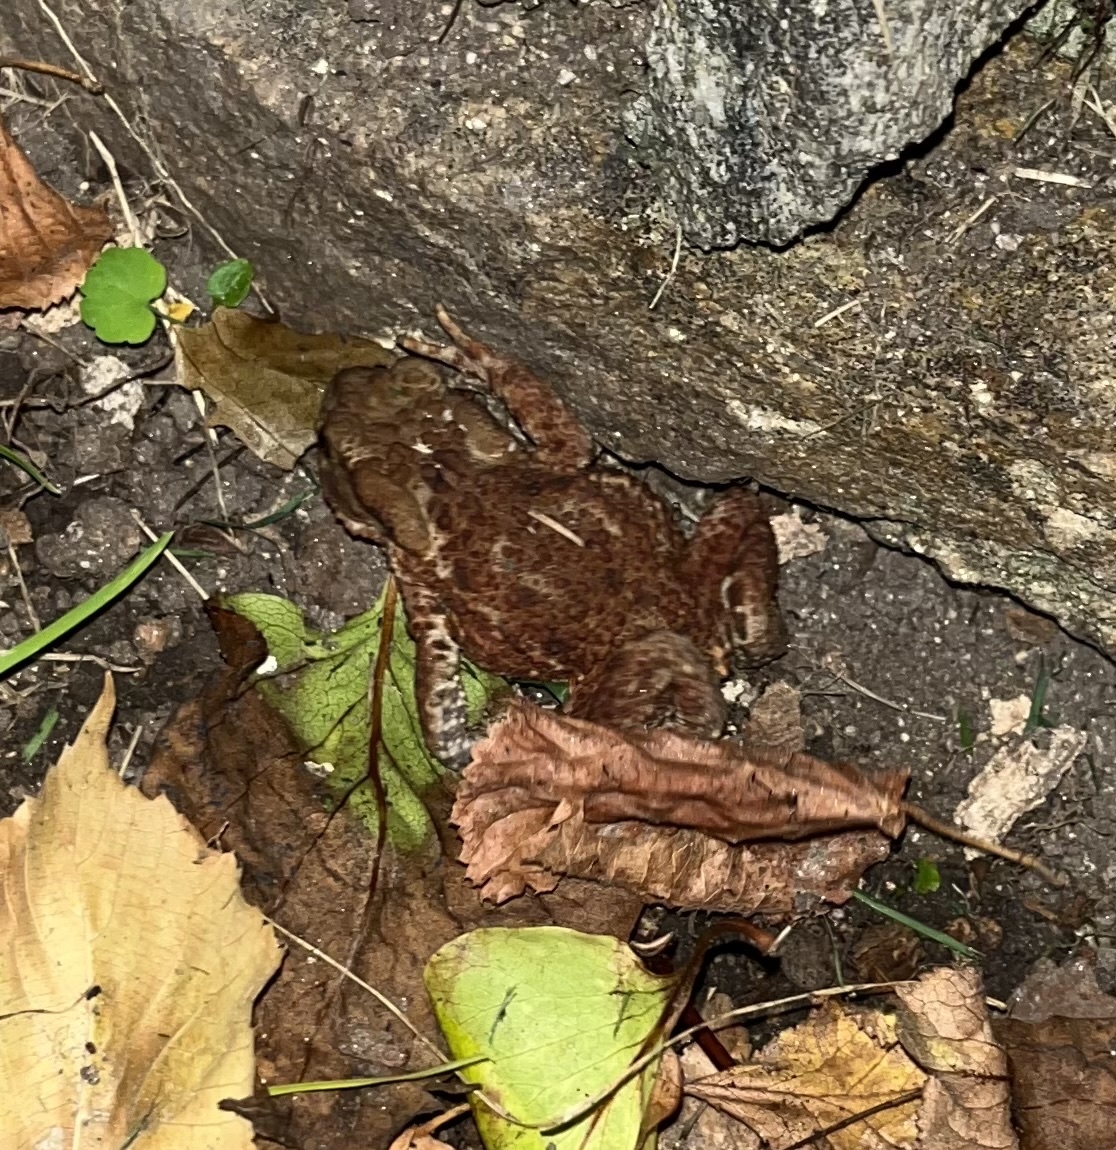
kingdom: Animalia
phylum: Chordata
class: Amphibia
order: Anura
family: Bufonidae
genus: Bufo
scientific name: Bufo bufo
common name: Common toad
